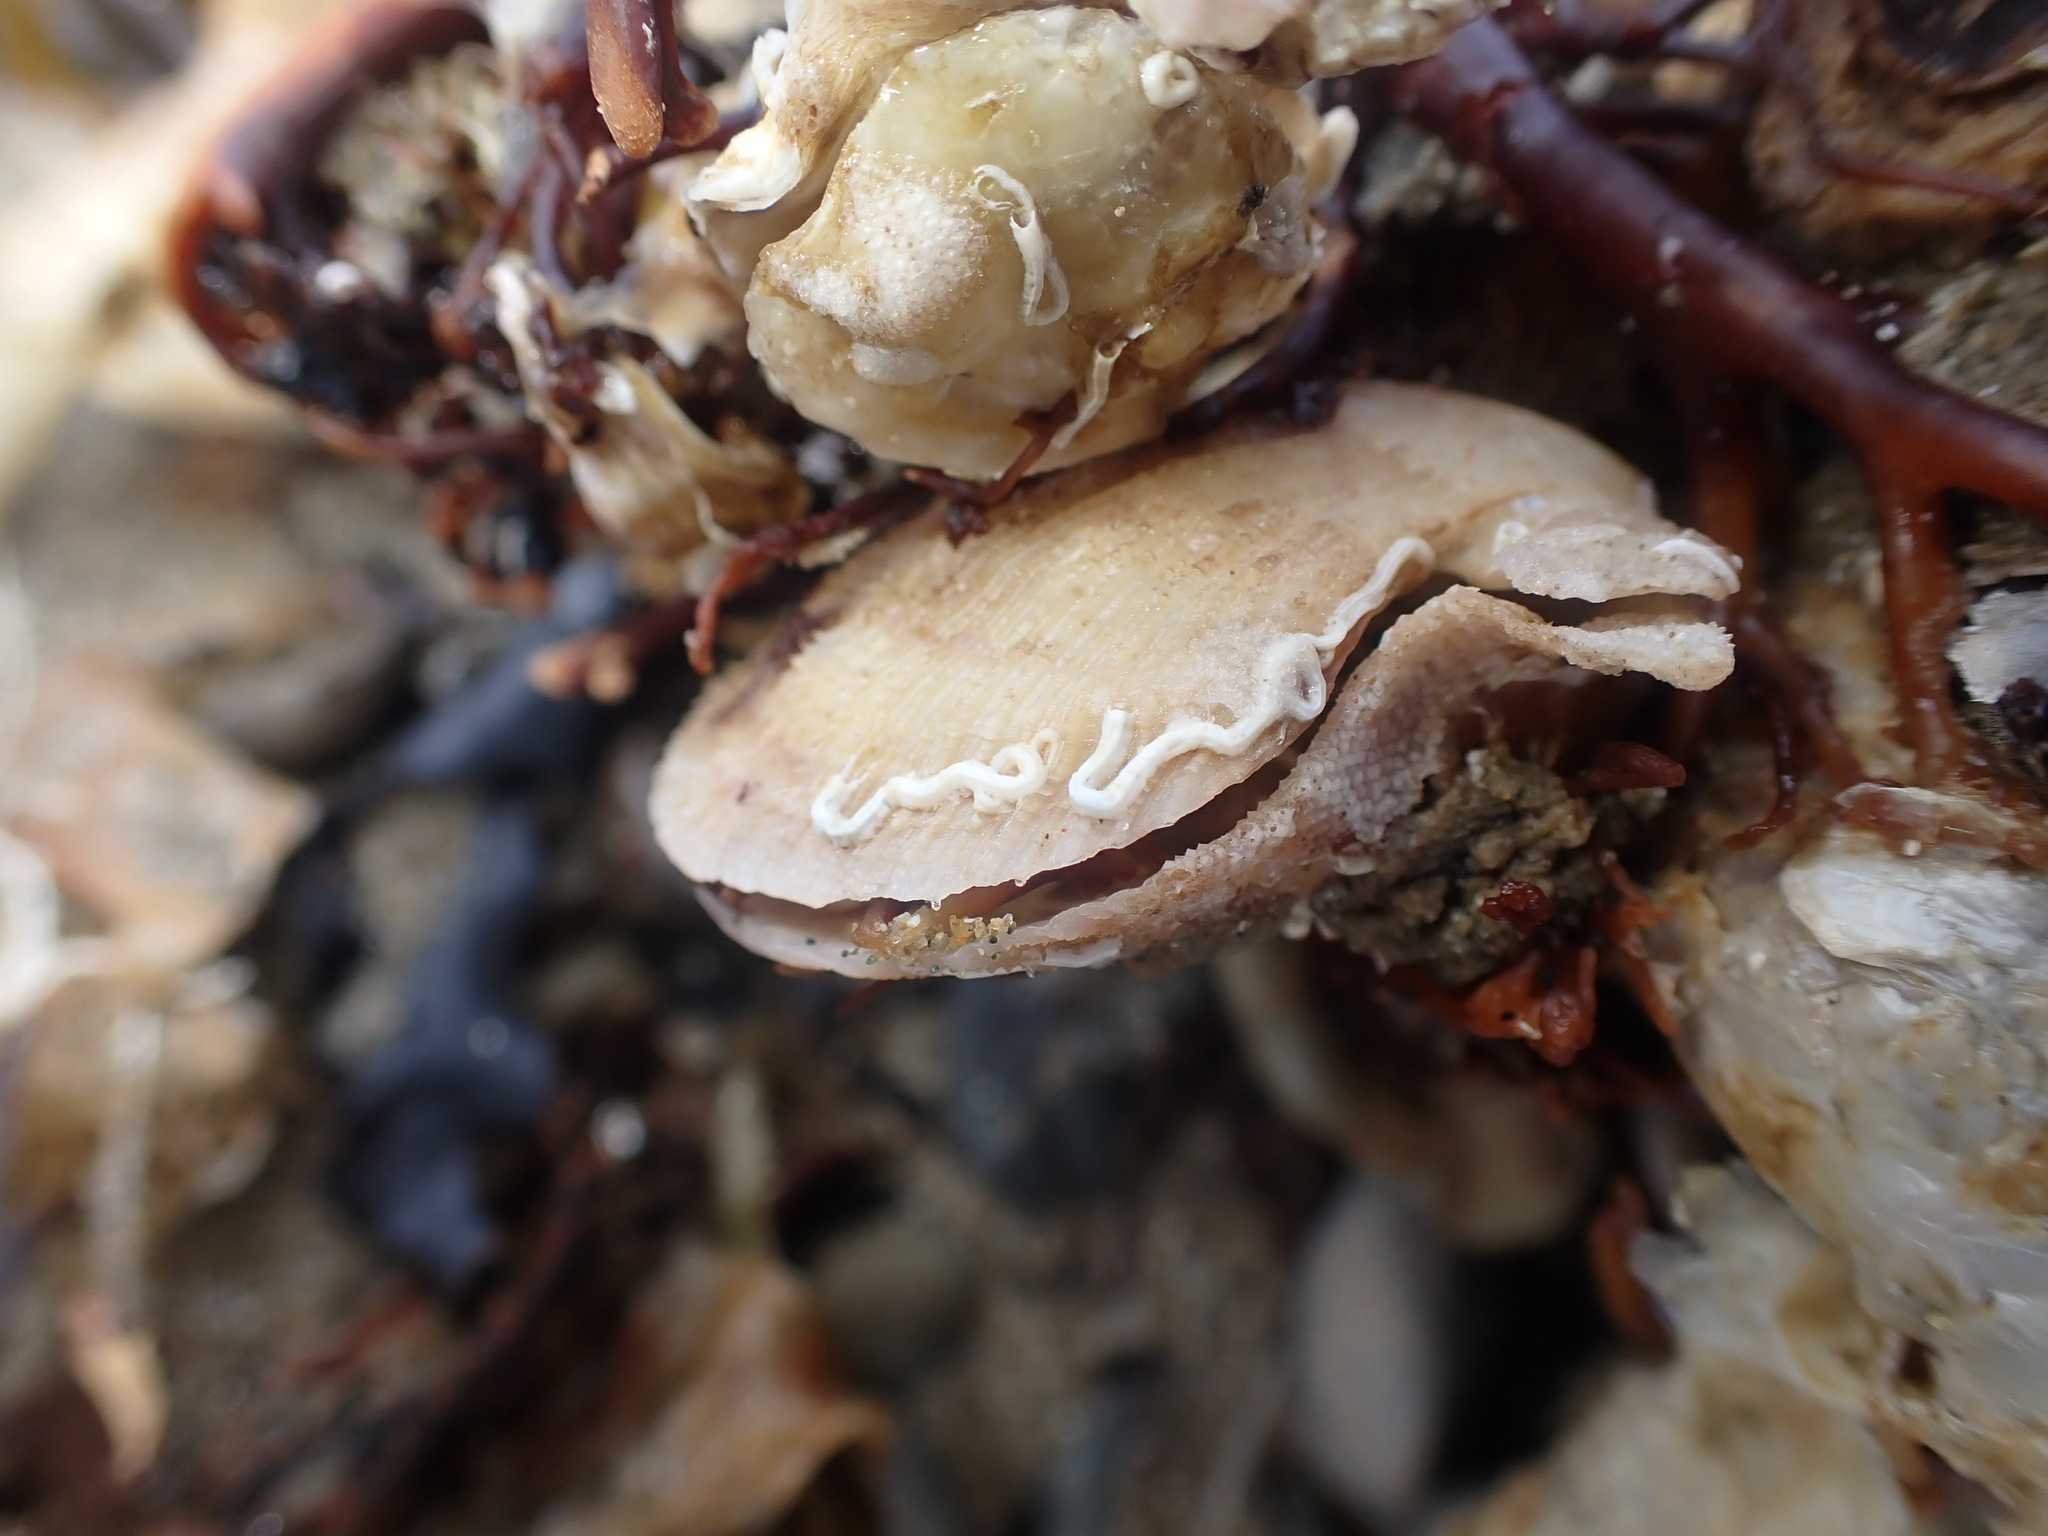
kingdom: Animalia
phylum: Mollusca
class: Bivalvia
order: Pectinida
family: Pectinidae
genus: Talochlamys
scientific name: Talochlamys zelandiae
